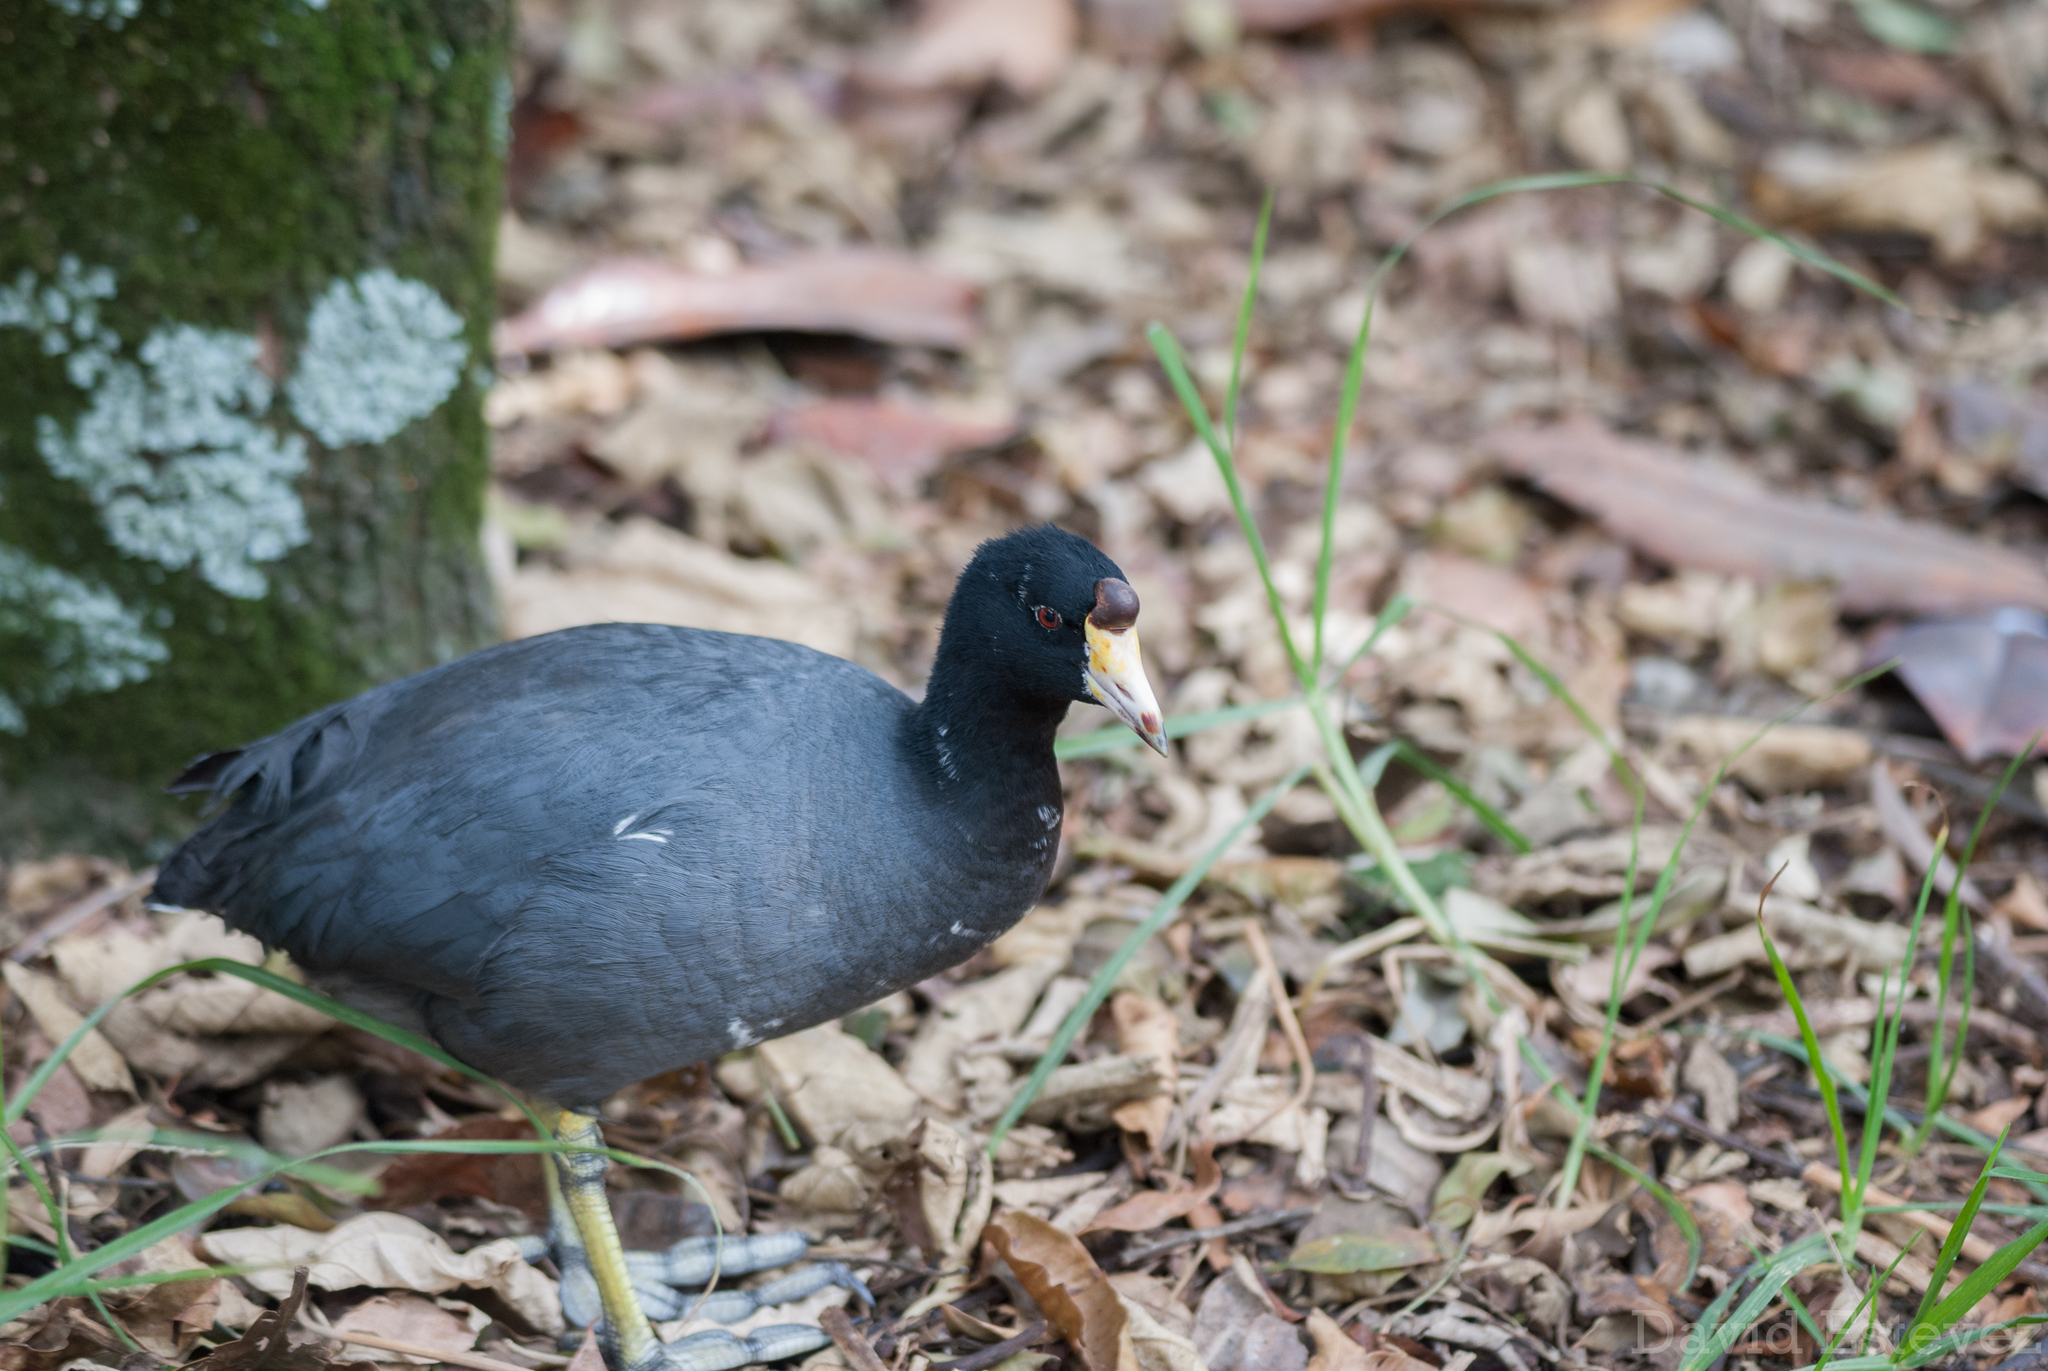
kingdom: Animalia
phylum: Chordata
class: Aves
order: Gruiformes
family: Rallidae
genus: Fulica
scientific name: Fulica americana
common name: American coot
